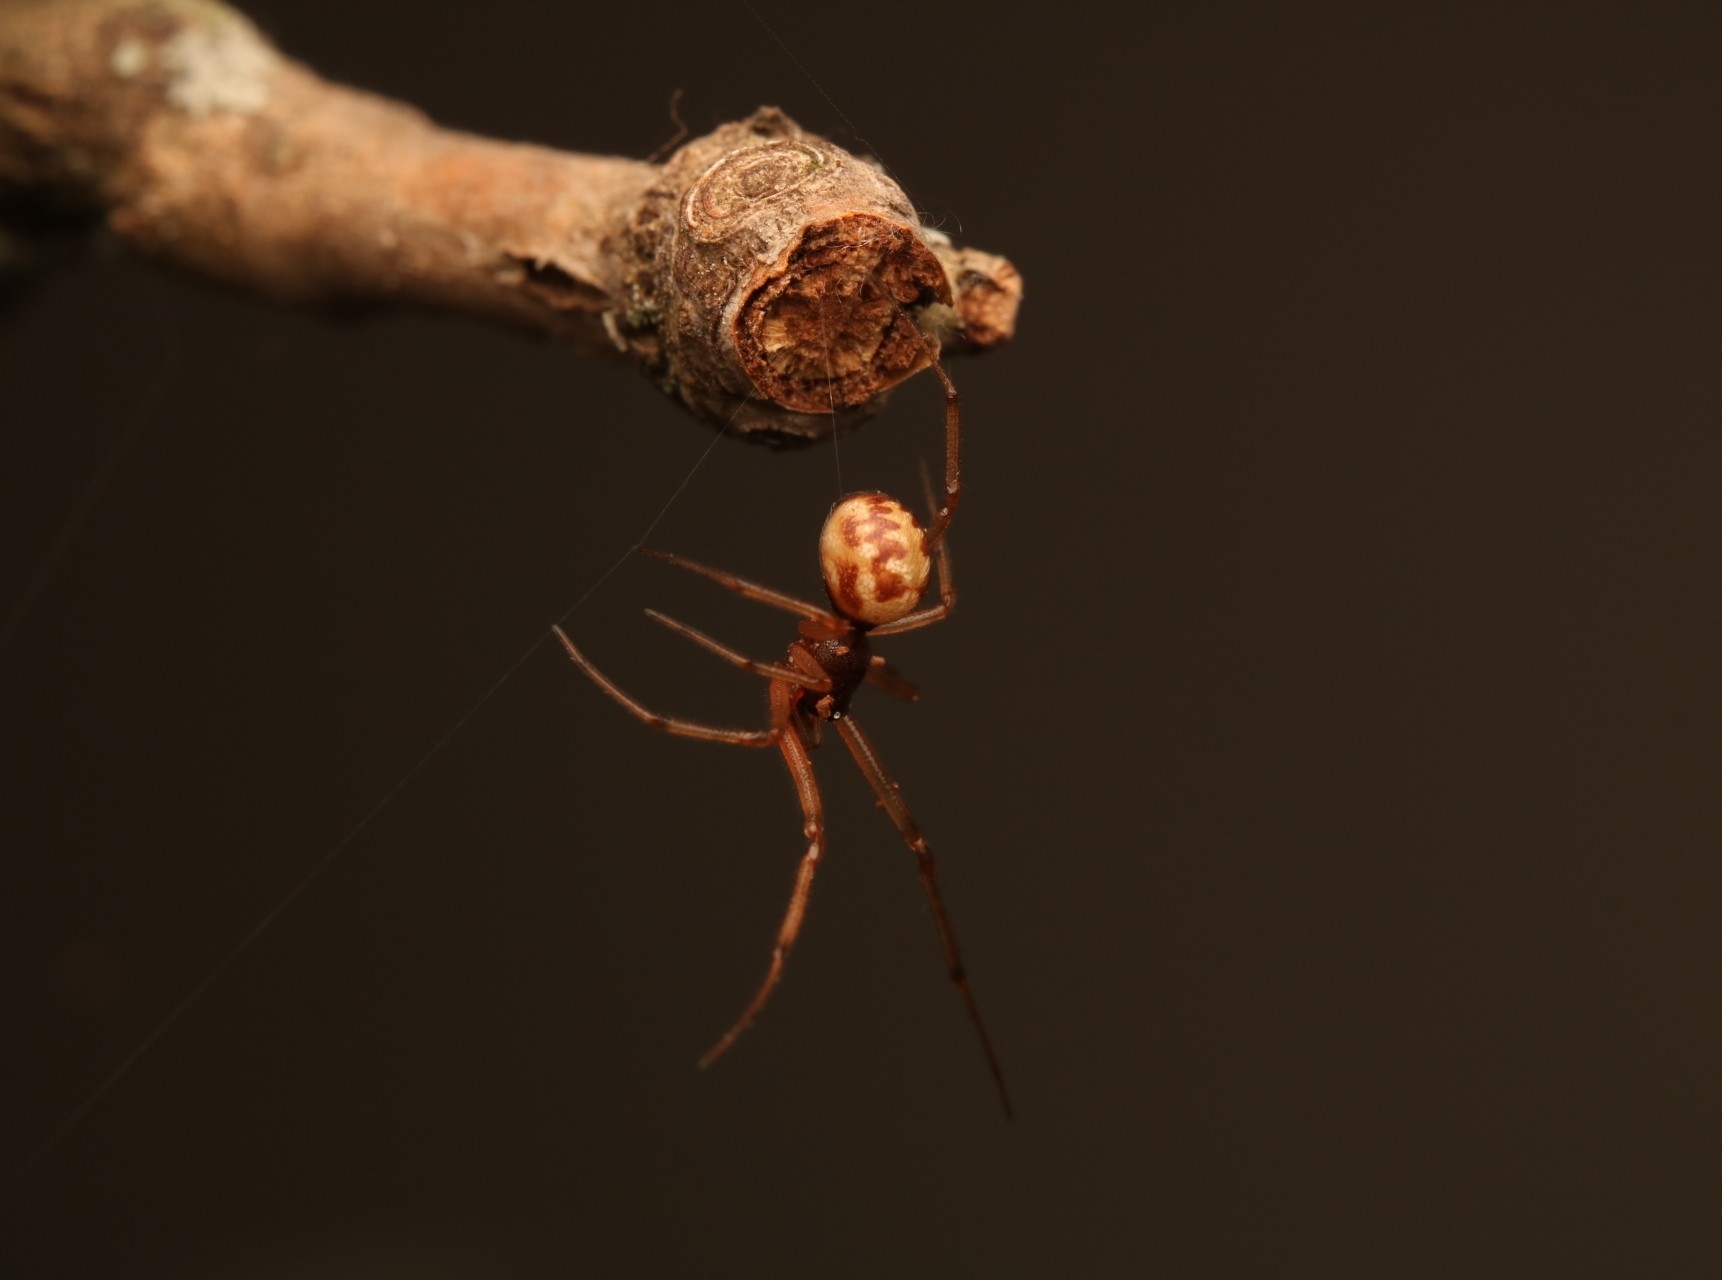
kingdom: Animalia
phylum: Arthropoda
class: Arachnida
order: Araneae
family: Theridiidae
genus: Steatoda
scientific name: Steatoda triangulosa
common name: Triangulate bud spider
